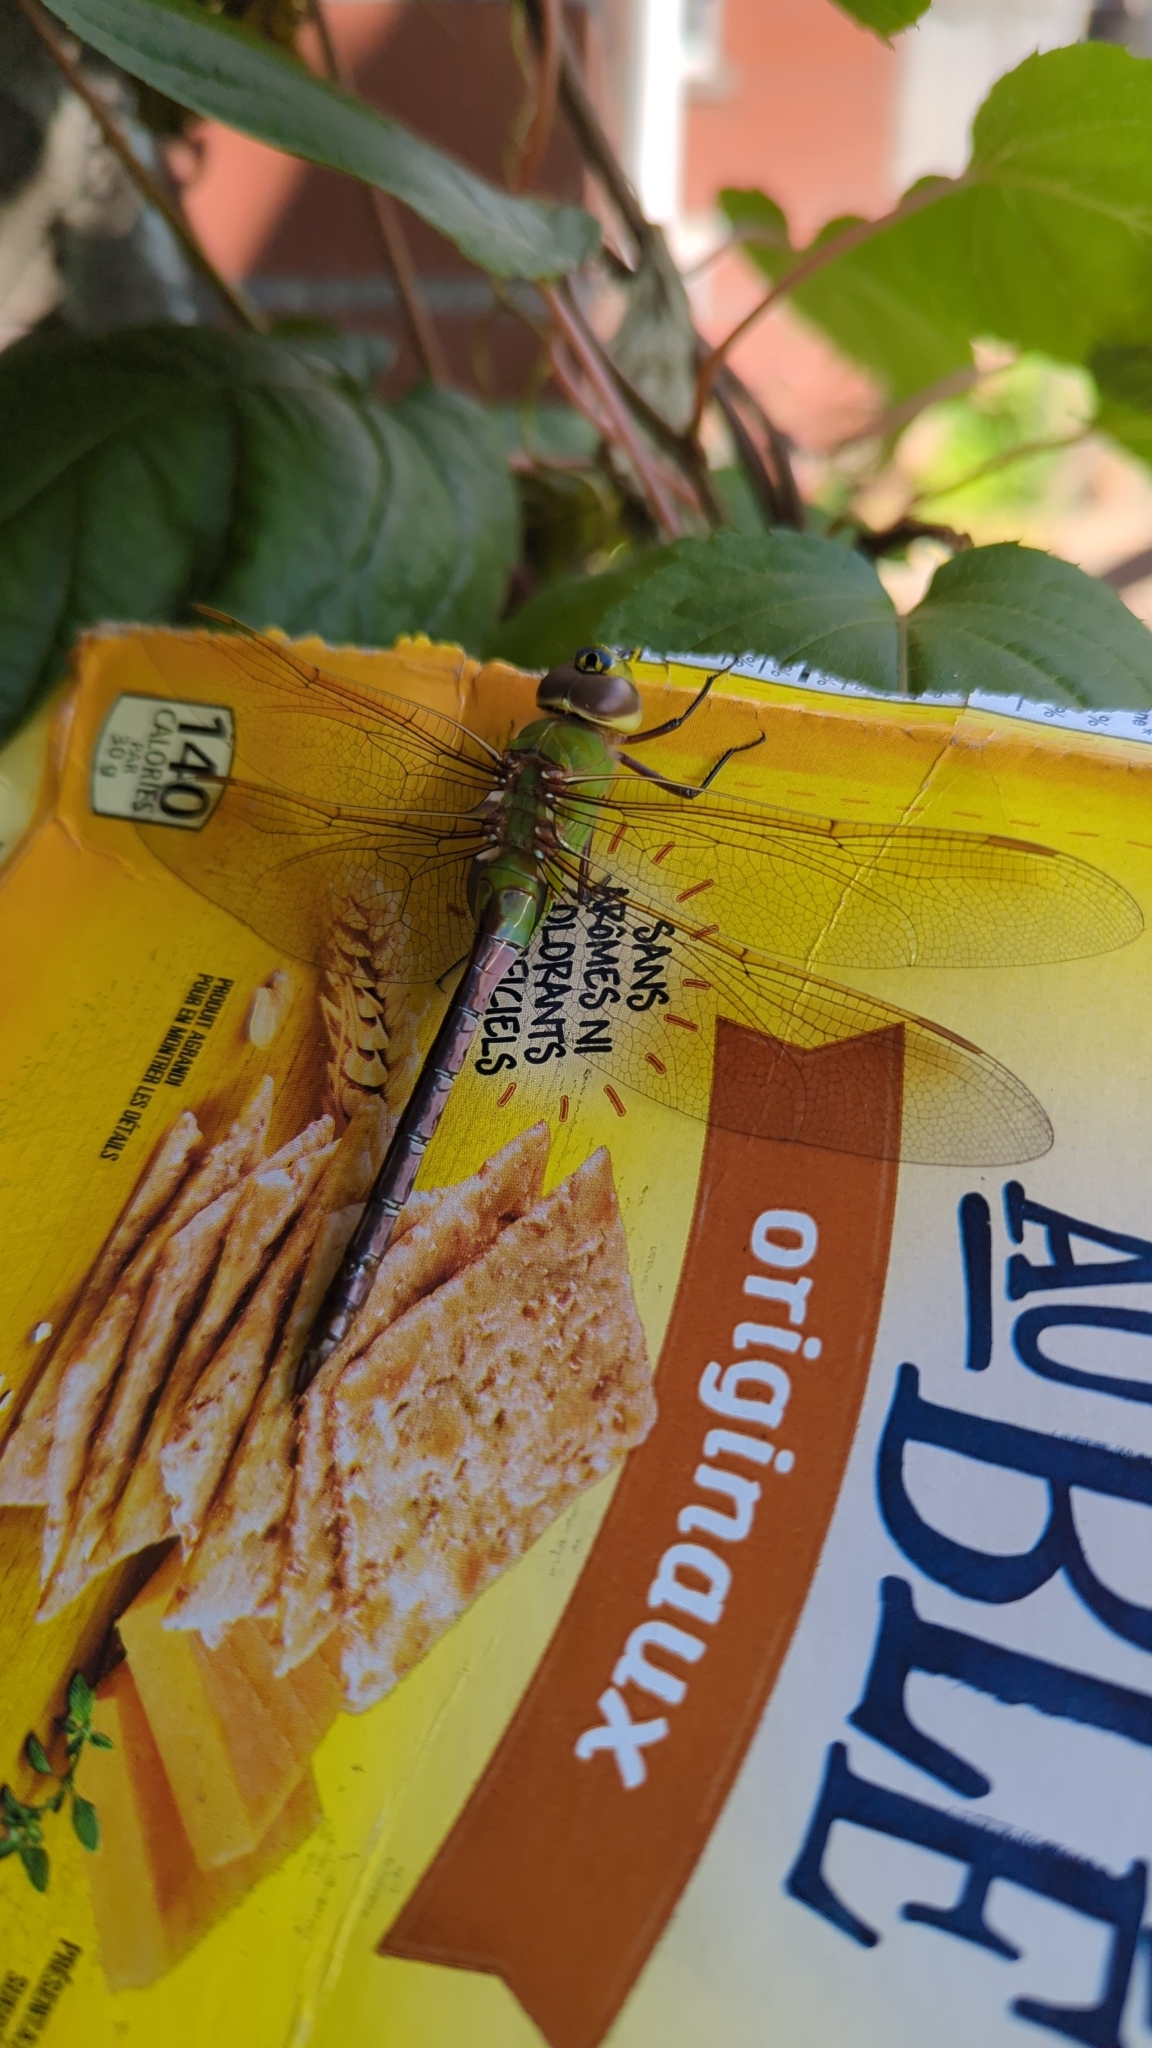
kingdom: Animalia
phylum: Arthropoda
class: Insecta
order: Odonata
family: Aeshnidae
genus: Anax
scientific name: Anax junius
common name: Common green darner
